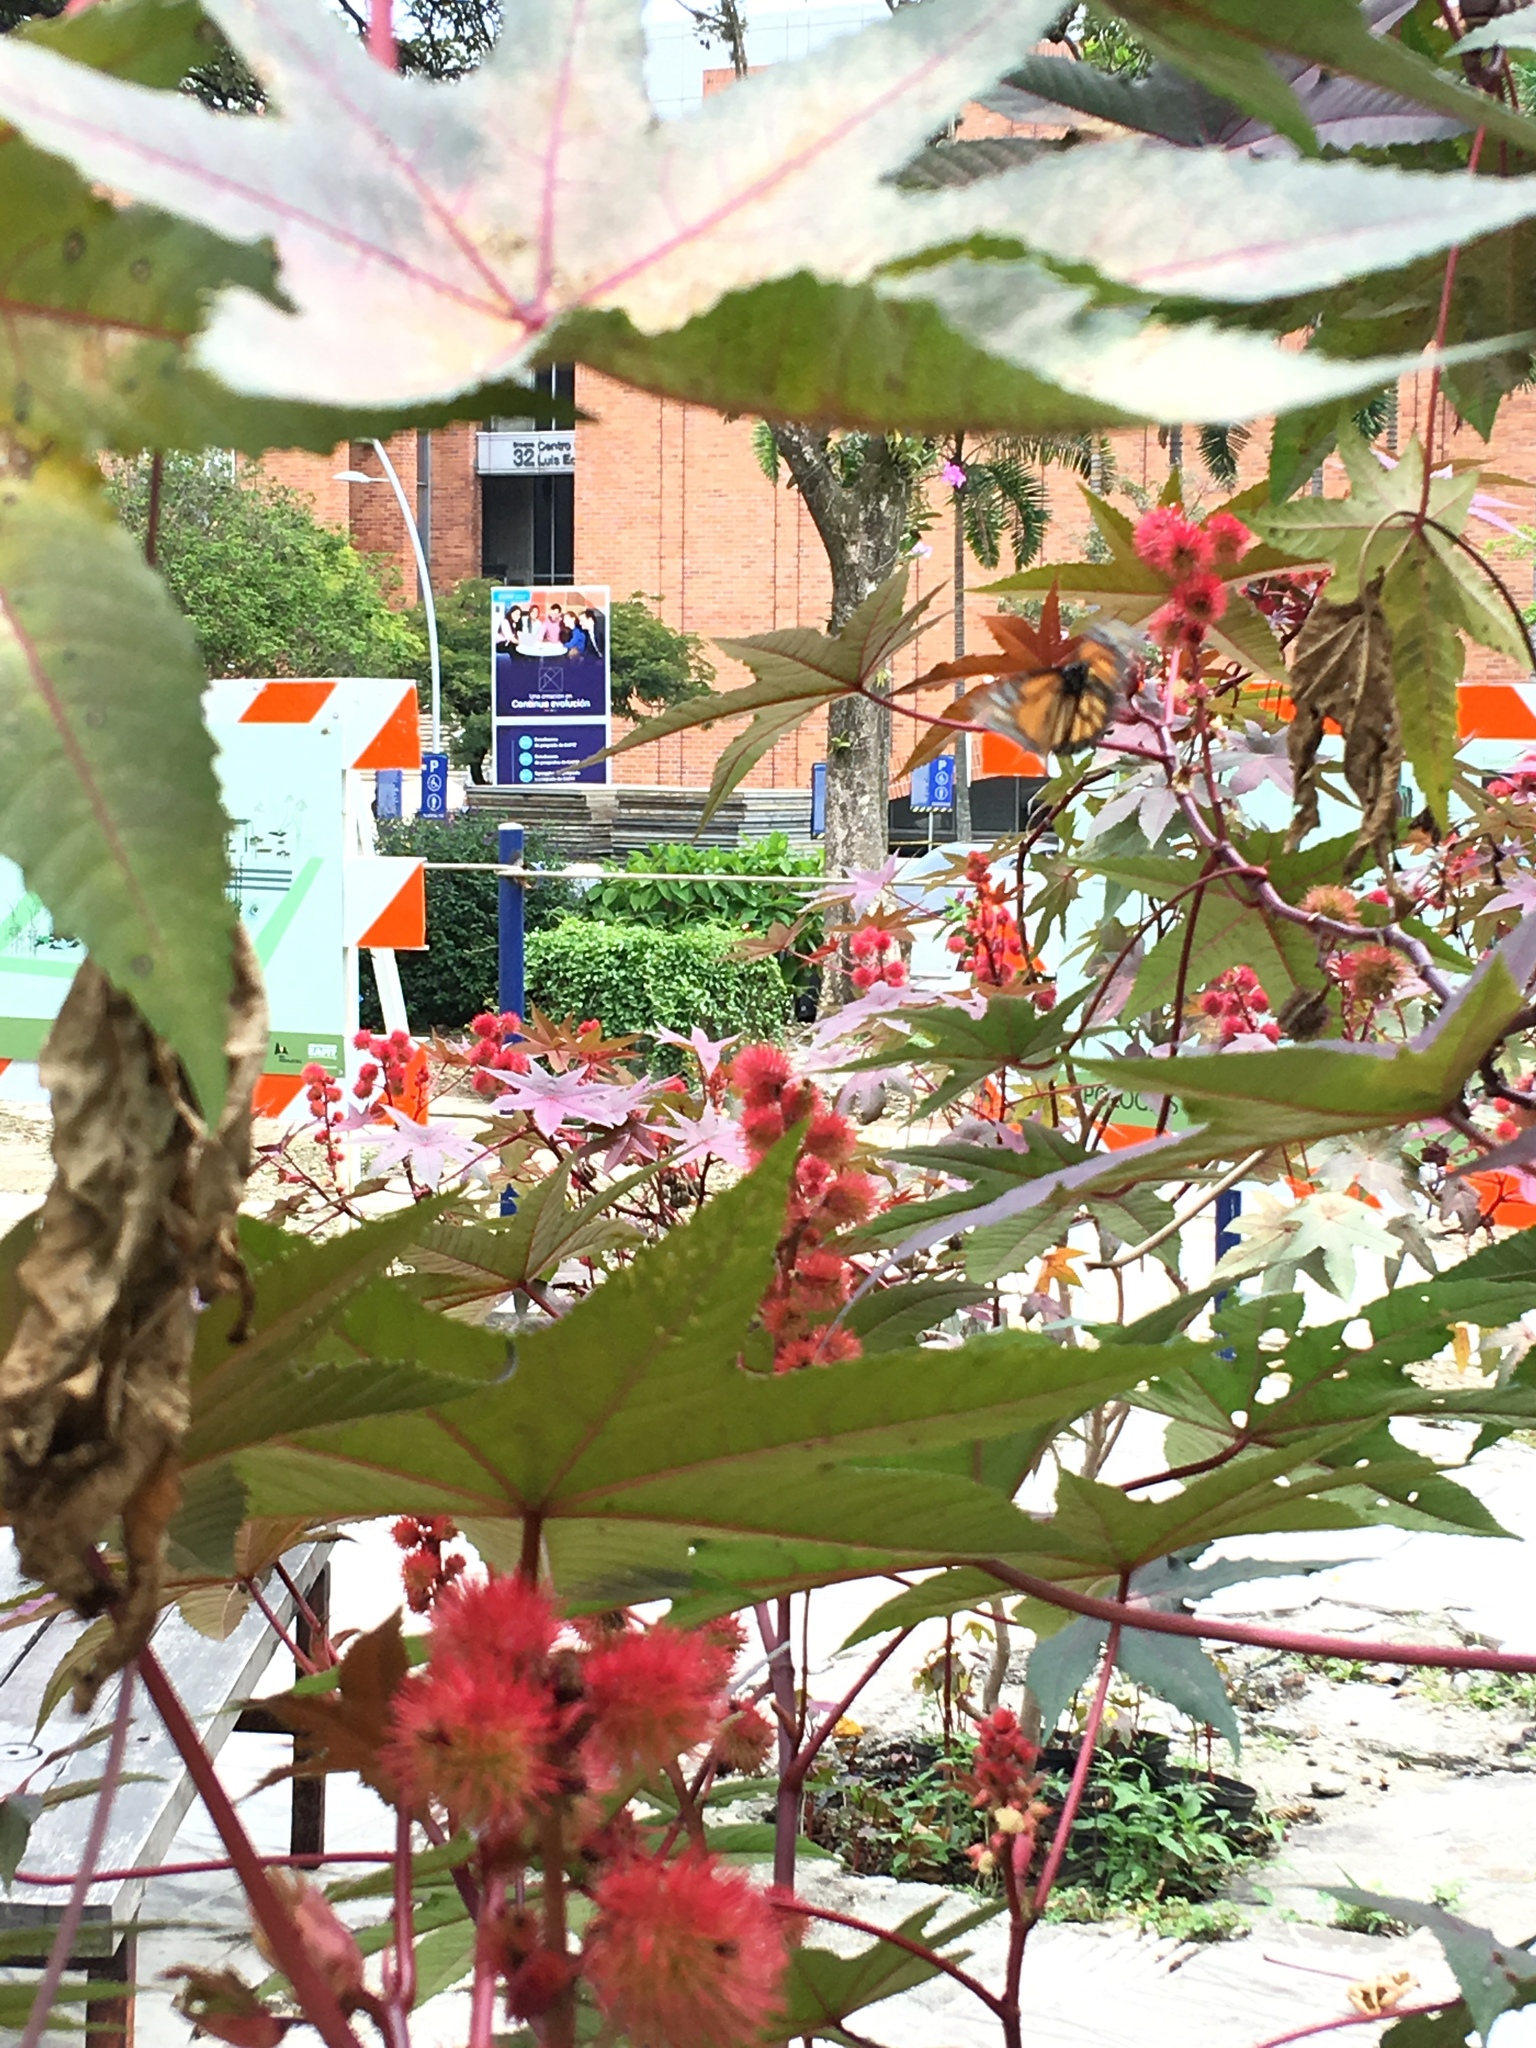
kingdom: Animalia
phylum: Arthropoda
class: Insecta
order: Lepidoptera
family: Nymphalidae
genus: Danaus
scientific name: Danaus plexippus
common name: Monarch
